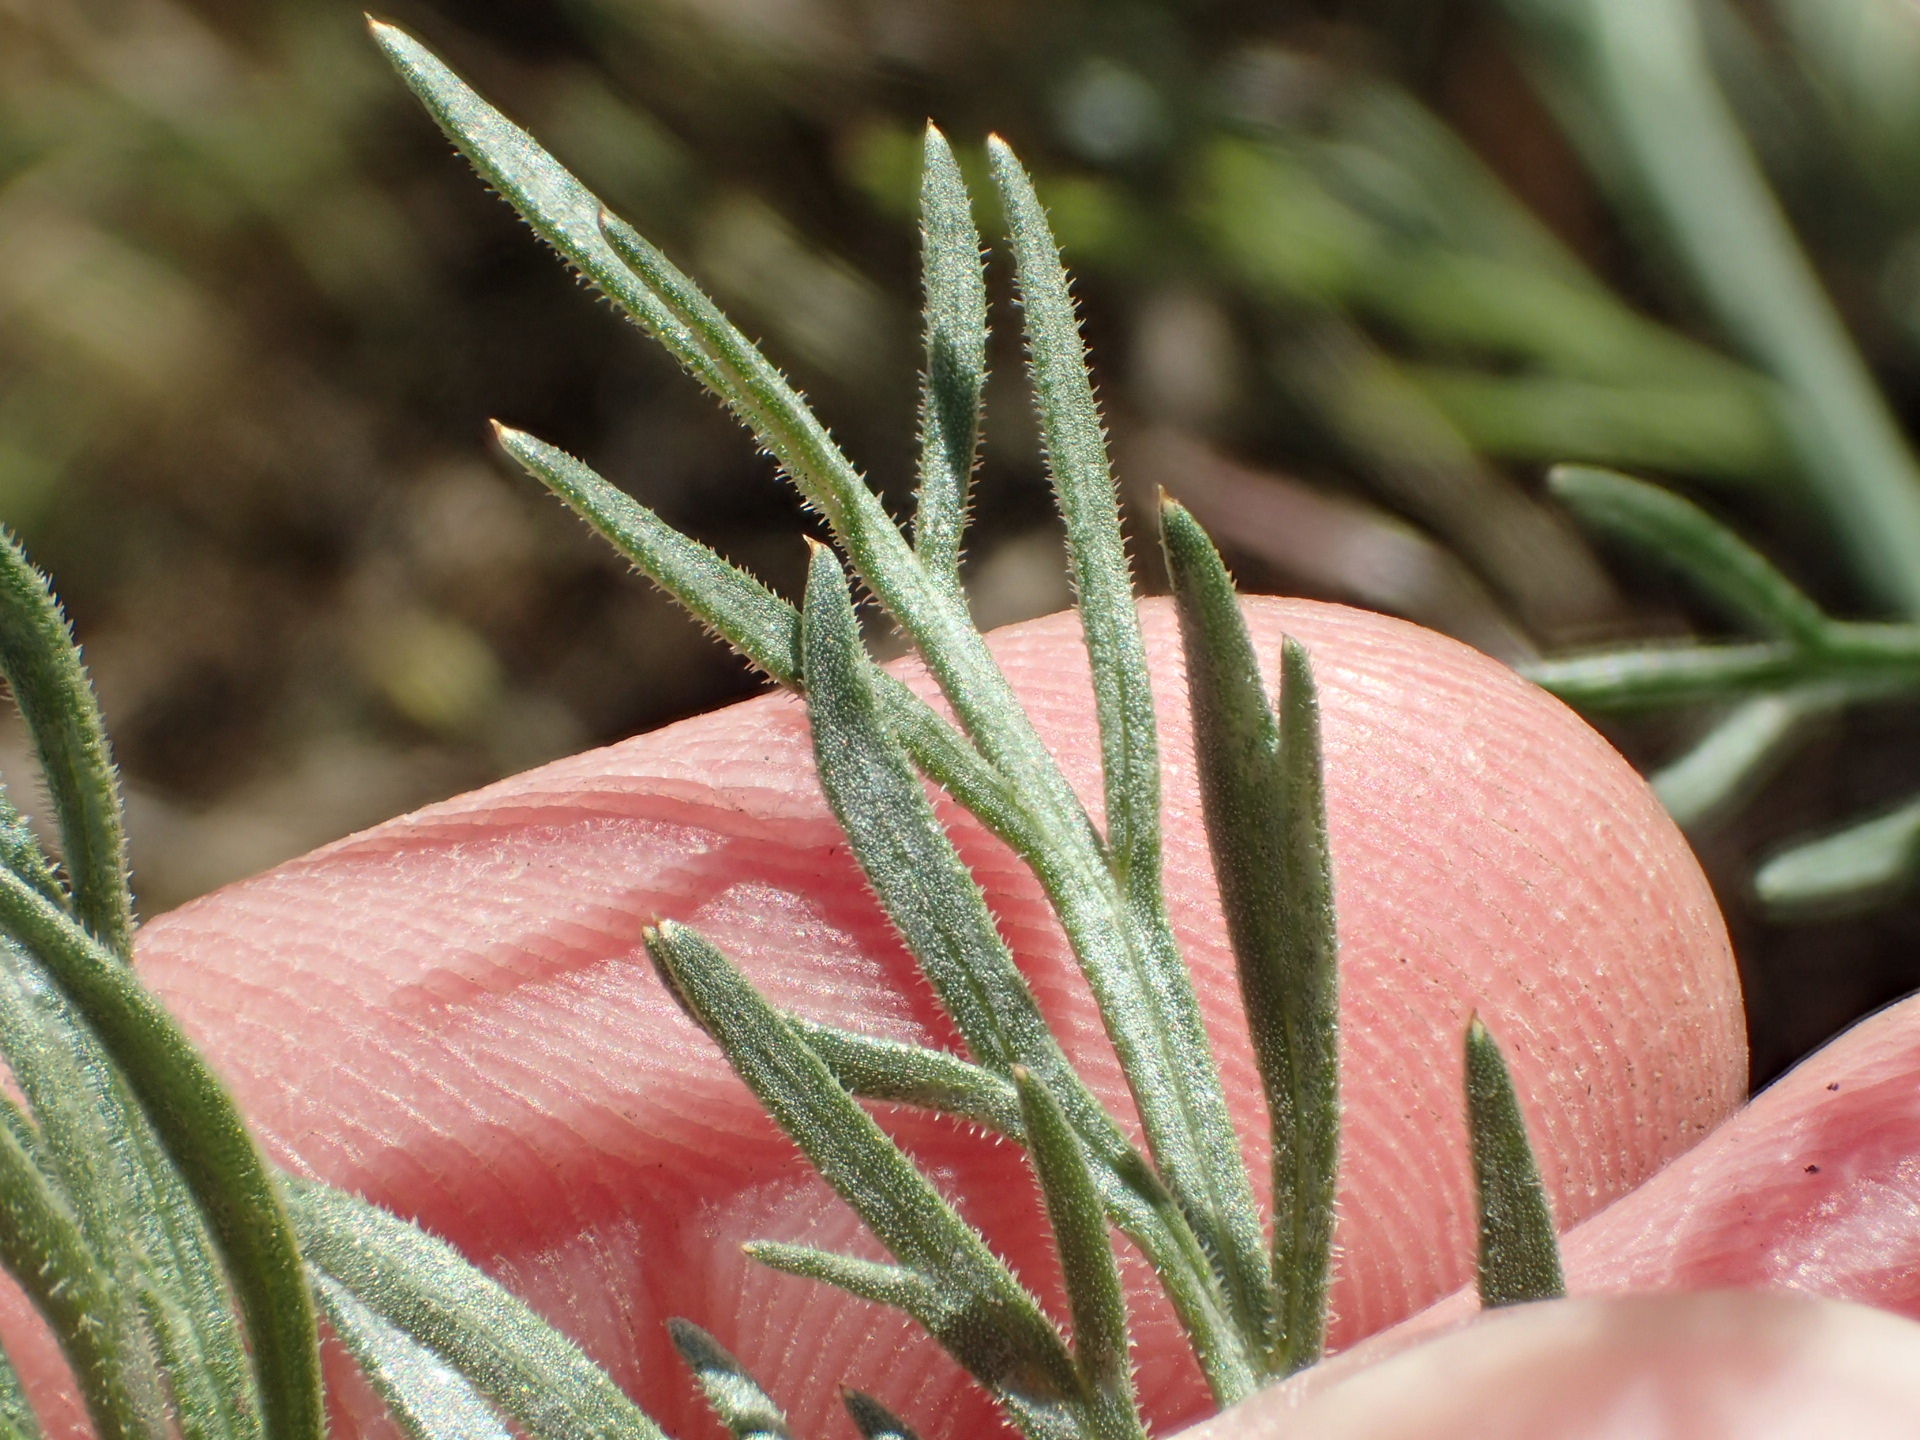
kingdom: Plantae
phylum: Tracheophyta
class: Magnoliopsida
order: Apiales
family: Apiaceae
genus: Lomatium
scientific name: Lomatium caruifolium
